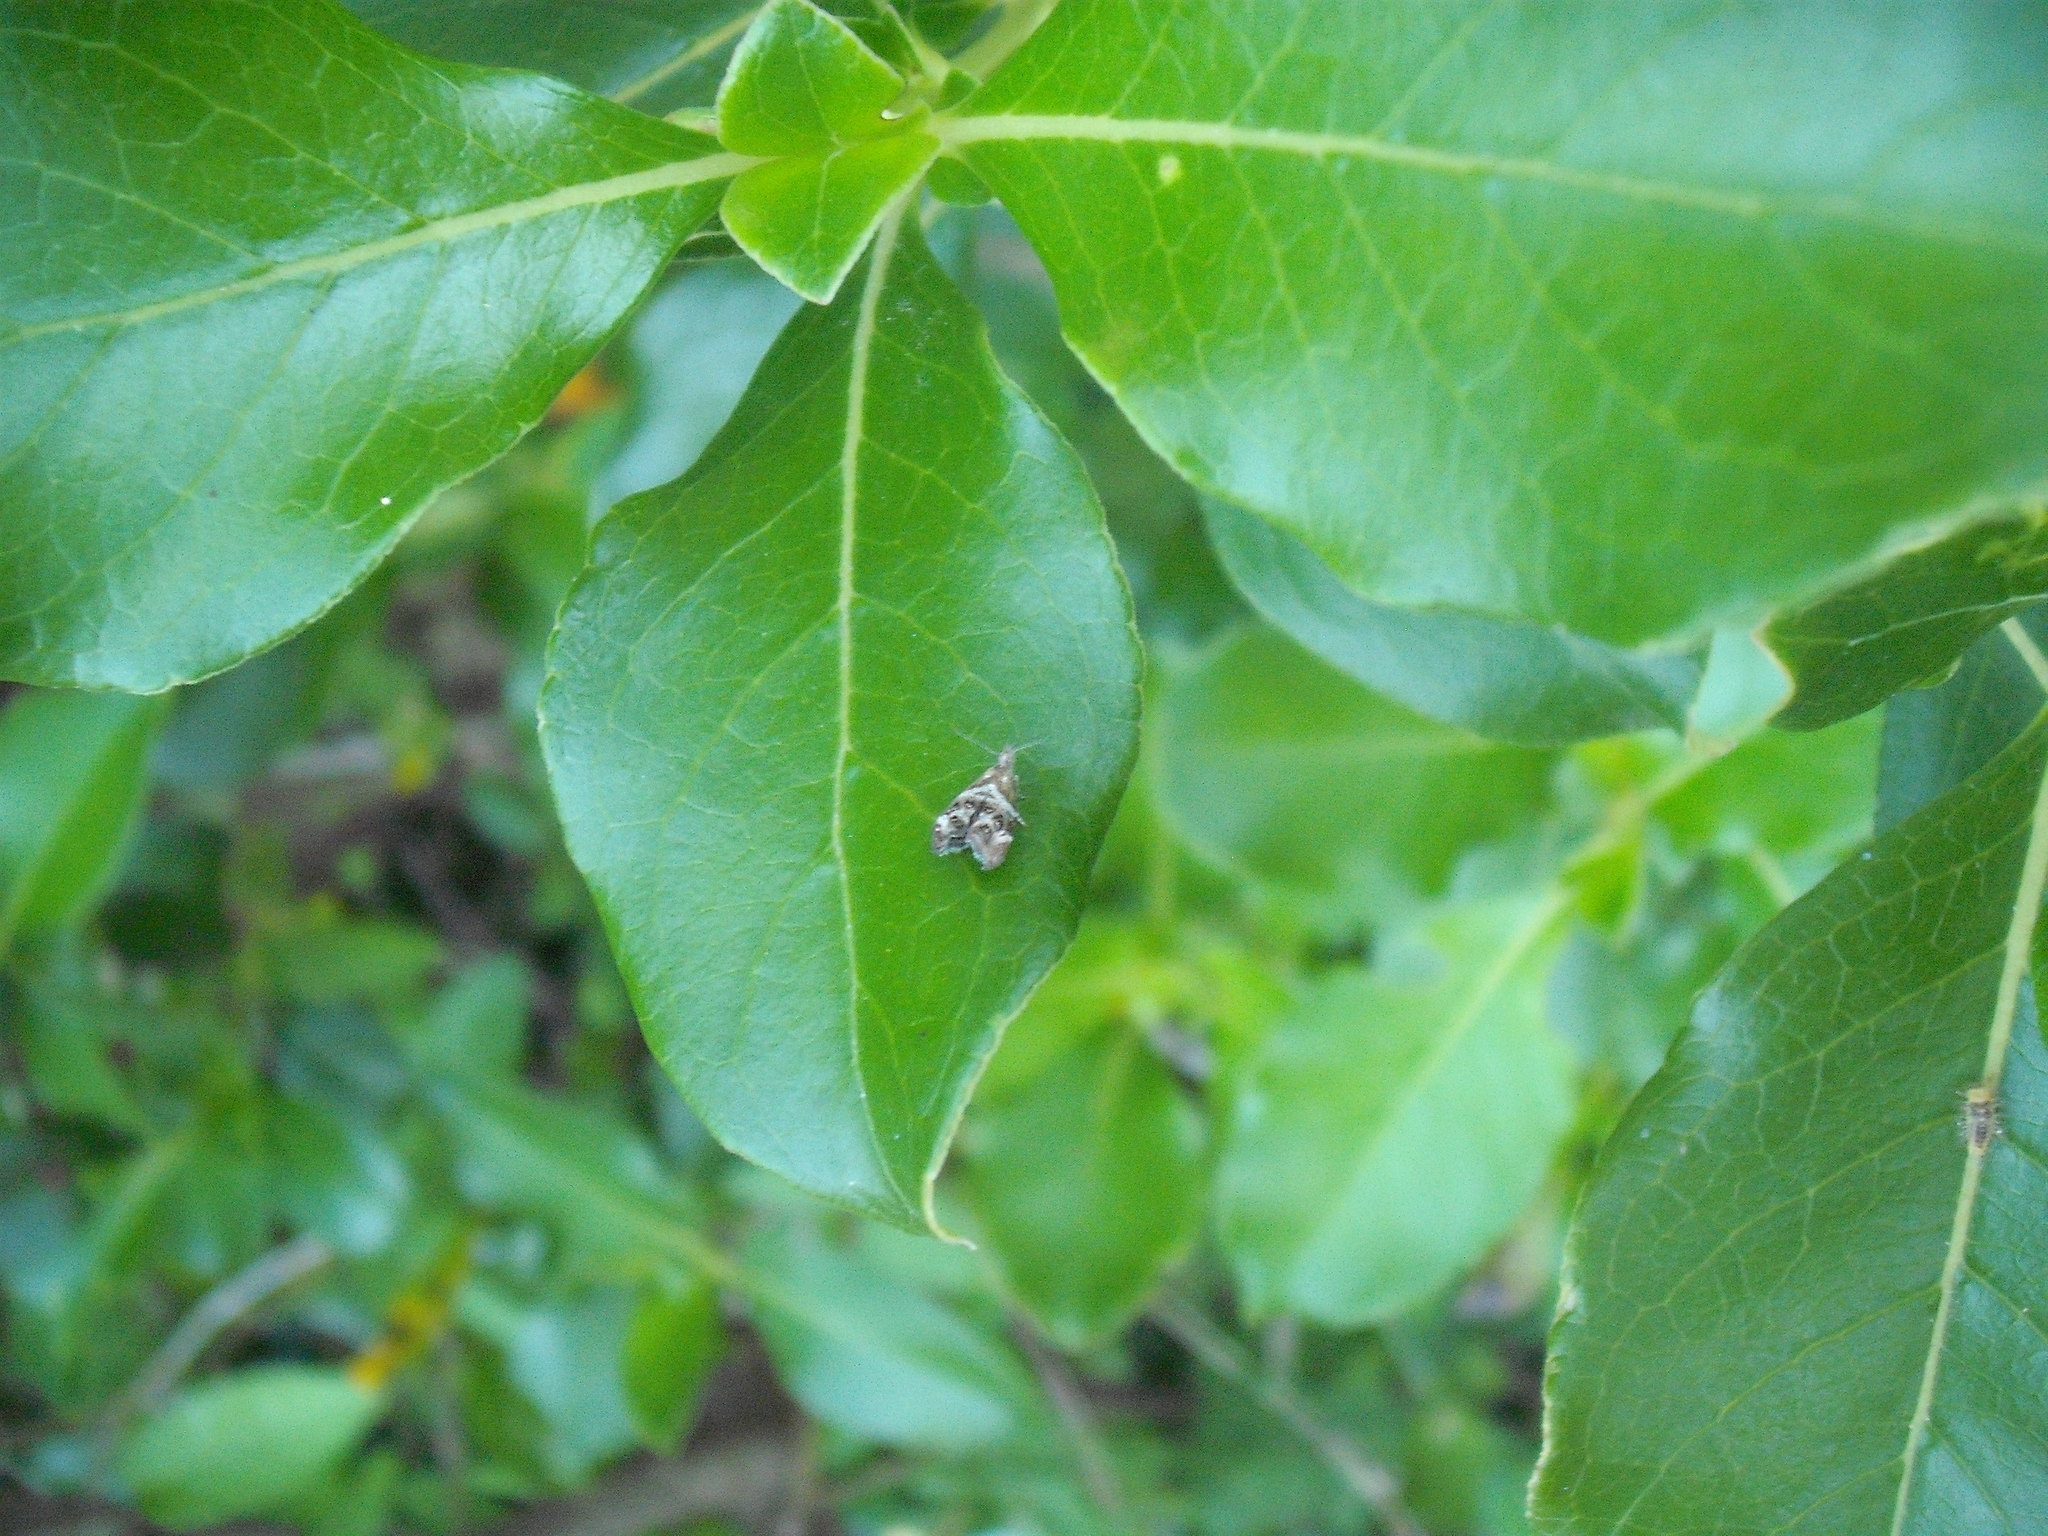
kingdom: Animalia
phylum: Arthropoda
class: Insecta
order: Lepidoptera
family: Choreutidae
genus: Tebenna
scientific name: Tebenna micalis
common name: Vagrant twitcher
